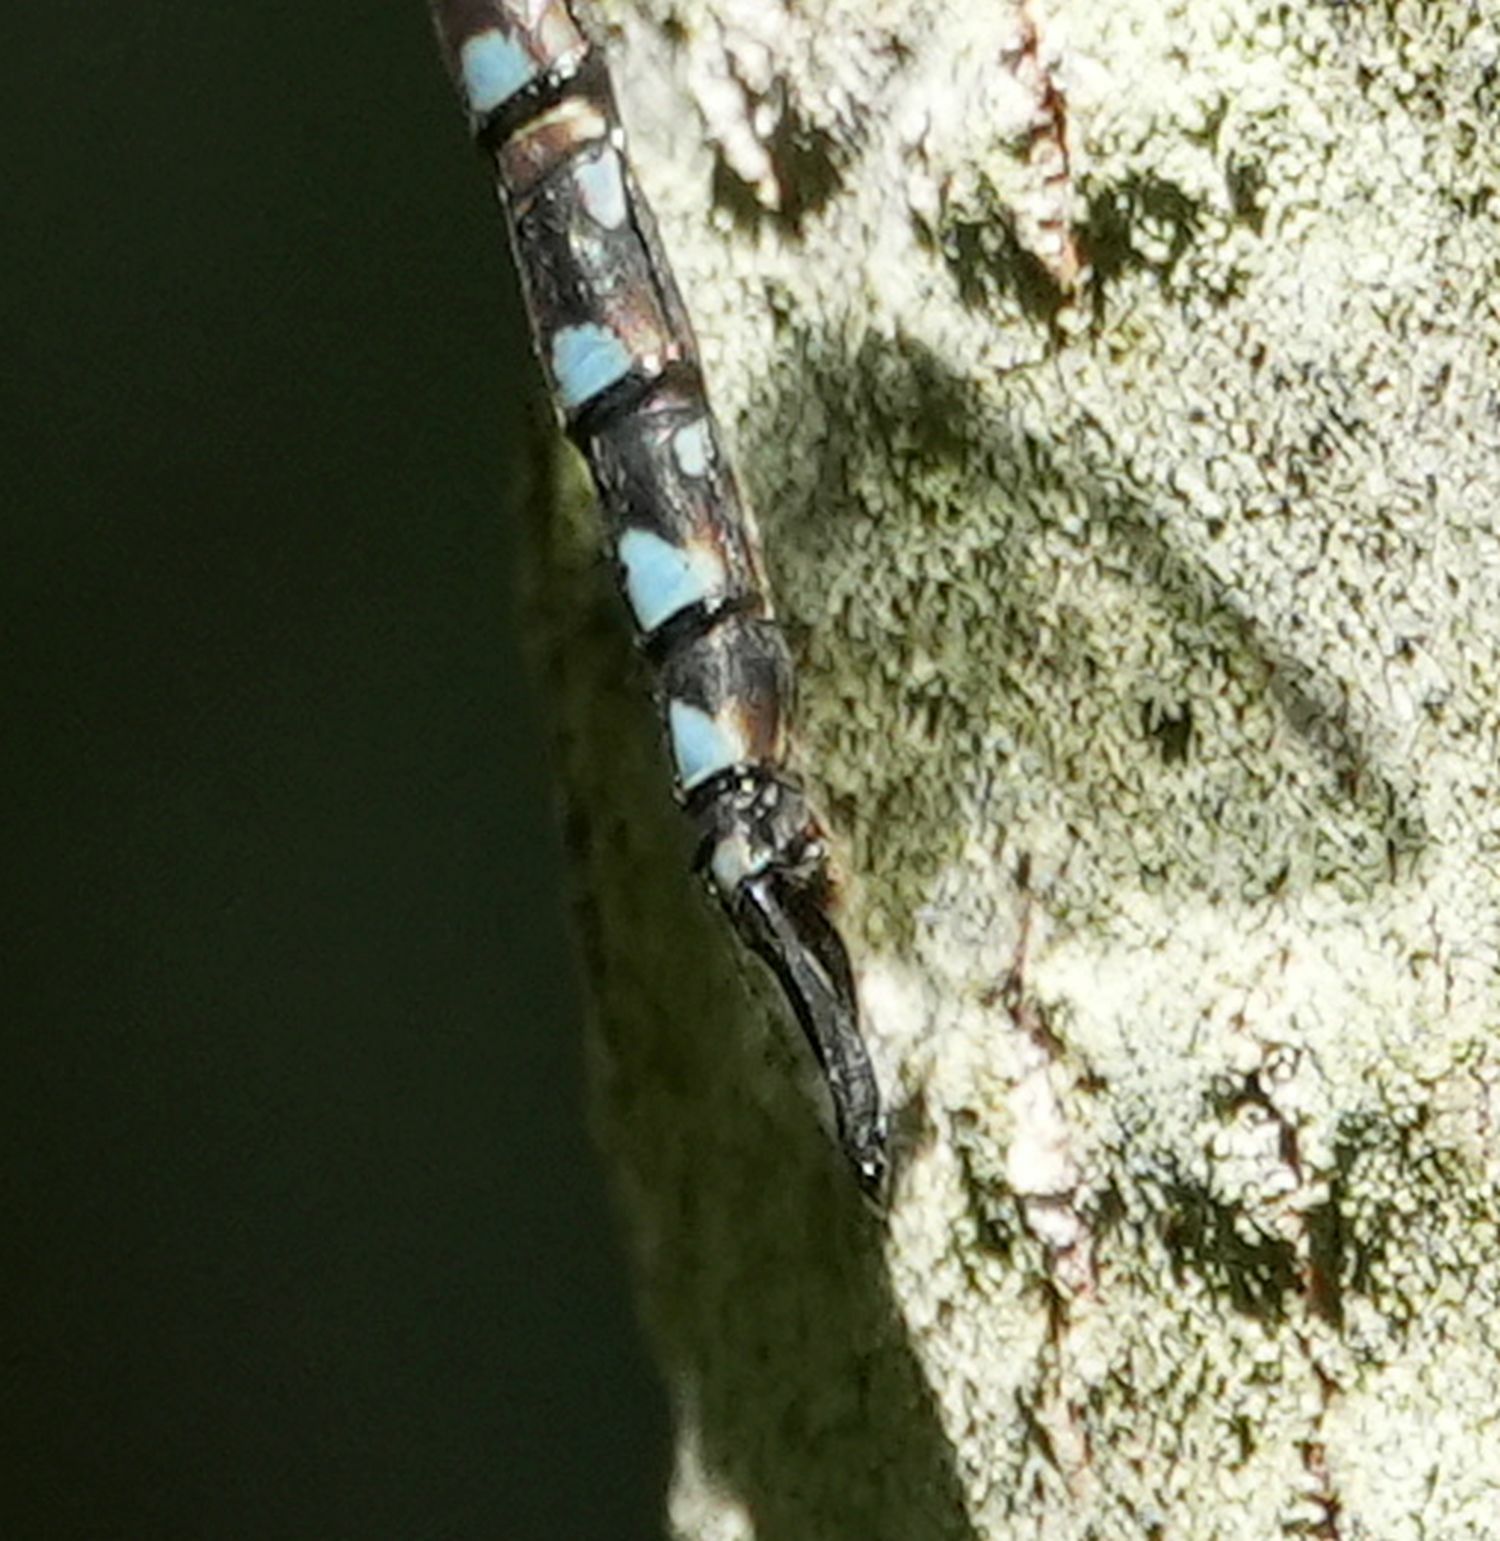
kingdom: Animalia
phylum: Arthropoda
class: Insecta
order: Odonata
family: Aeshnidae
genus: Aeshna
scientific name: Aeshna canadensis
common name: Canada darner
